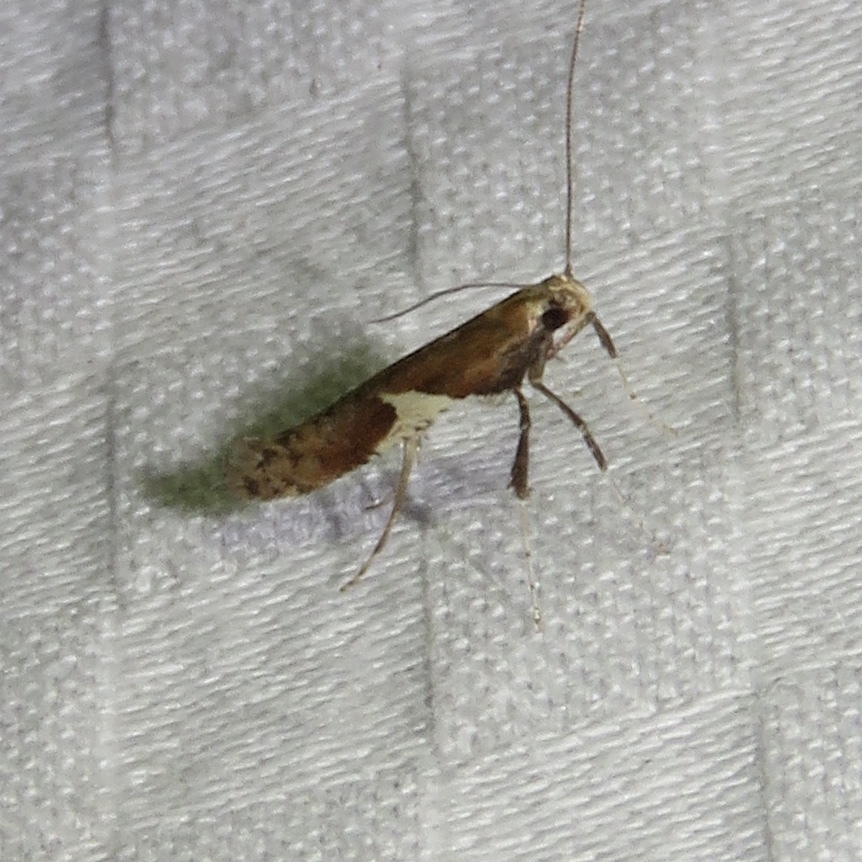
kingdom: Animalia
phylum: Arthropoda
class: Insecta
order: Lepidoptera
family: Gracillariidae
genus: Caloptilia
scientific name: Caloptilia stigmatella
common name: White-triangle slender
